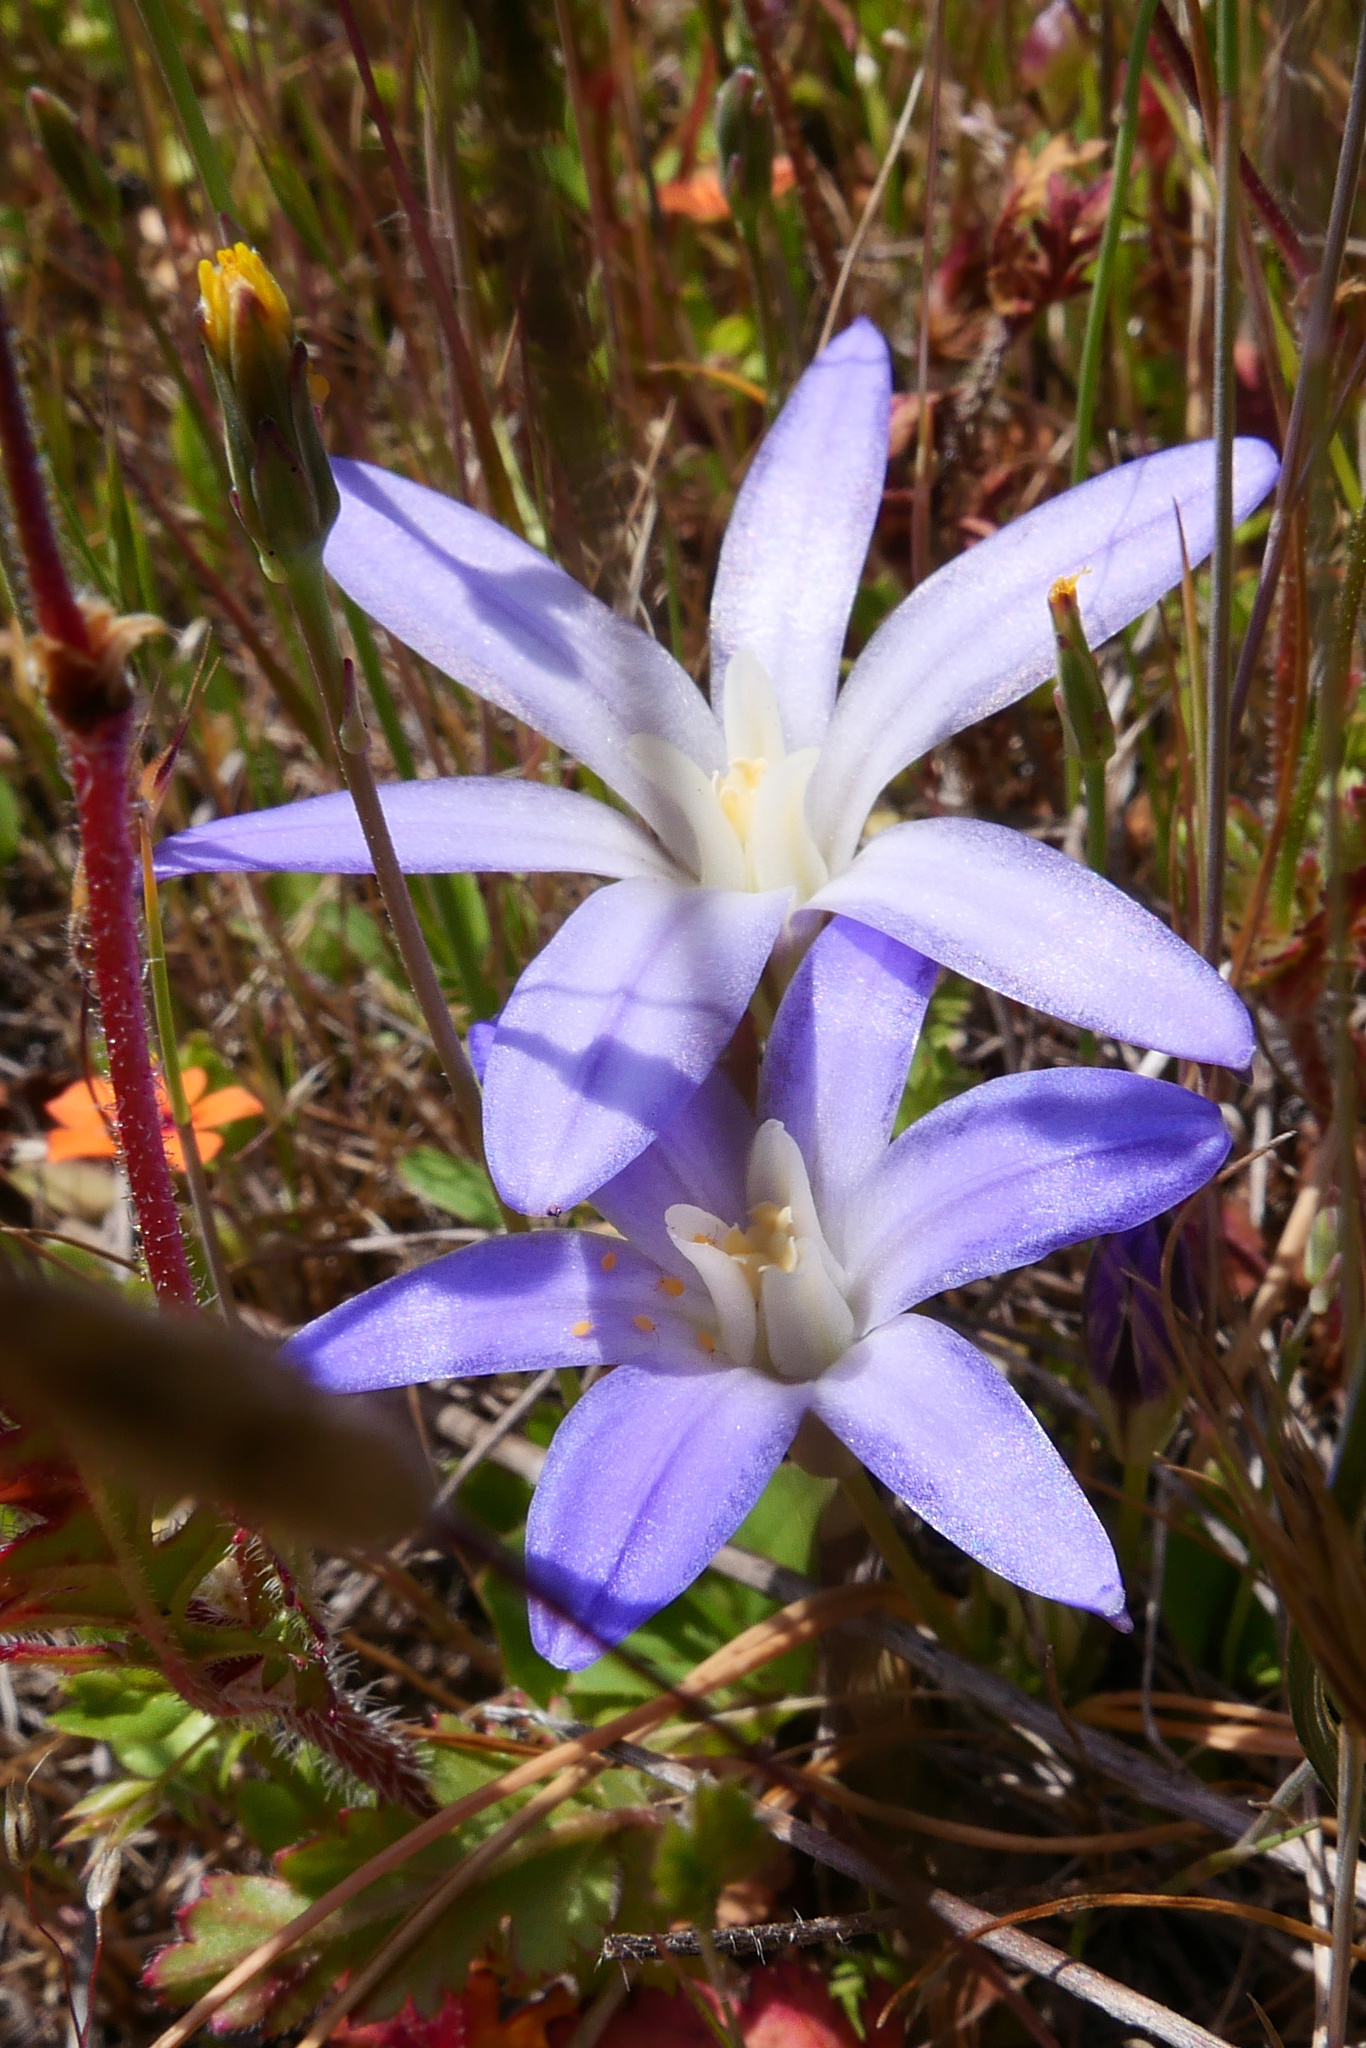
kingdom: Plantae
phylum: Tracheophyta
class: Liliopsida
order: Asparagales
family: Asparagaceae
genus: Brodiaea
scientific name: Brodiaea terrestris
